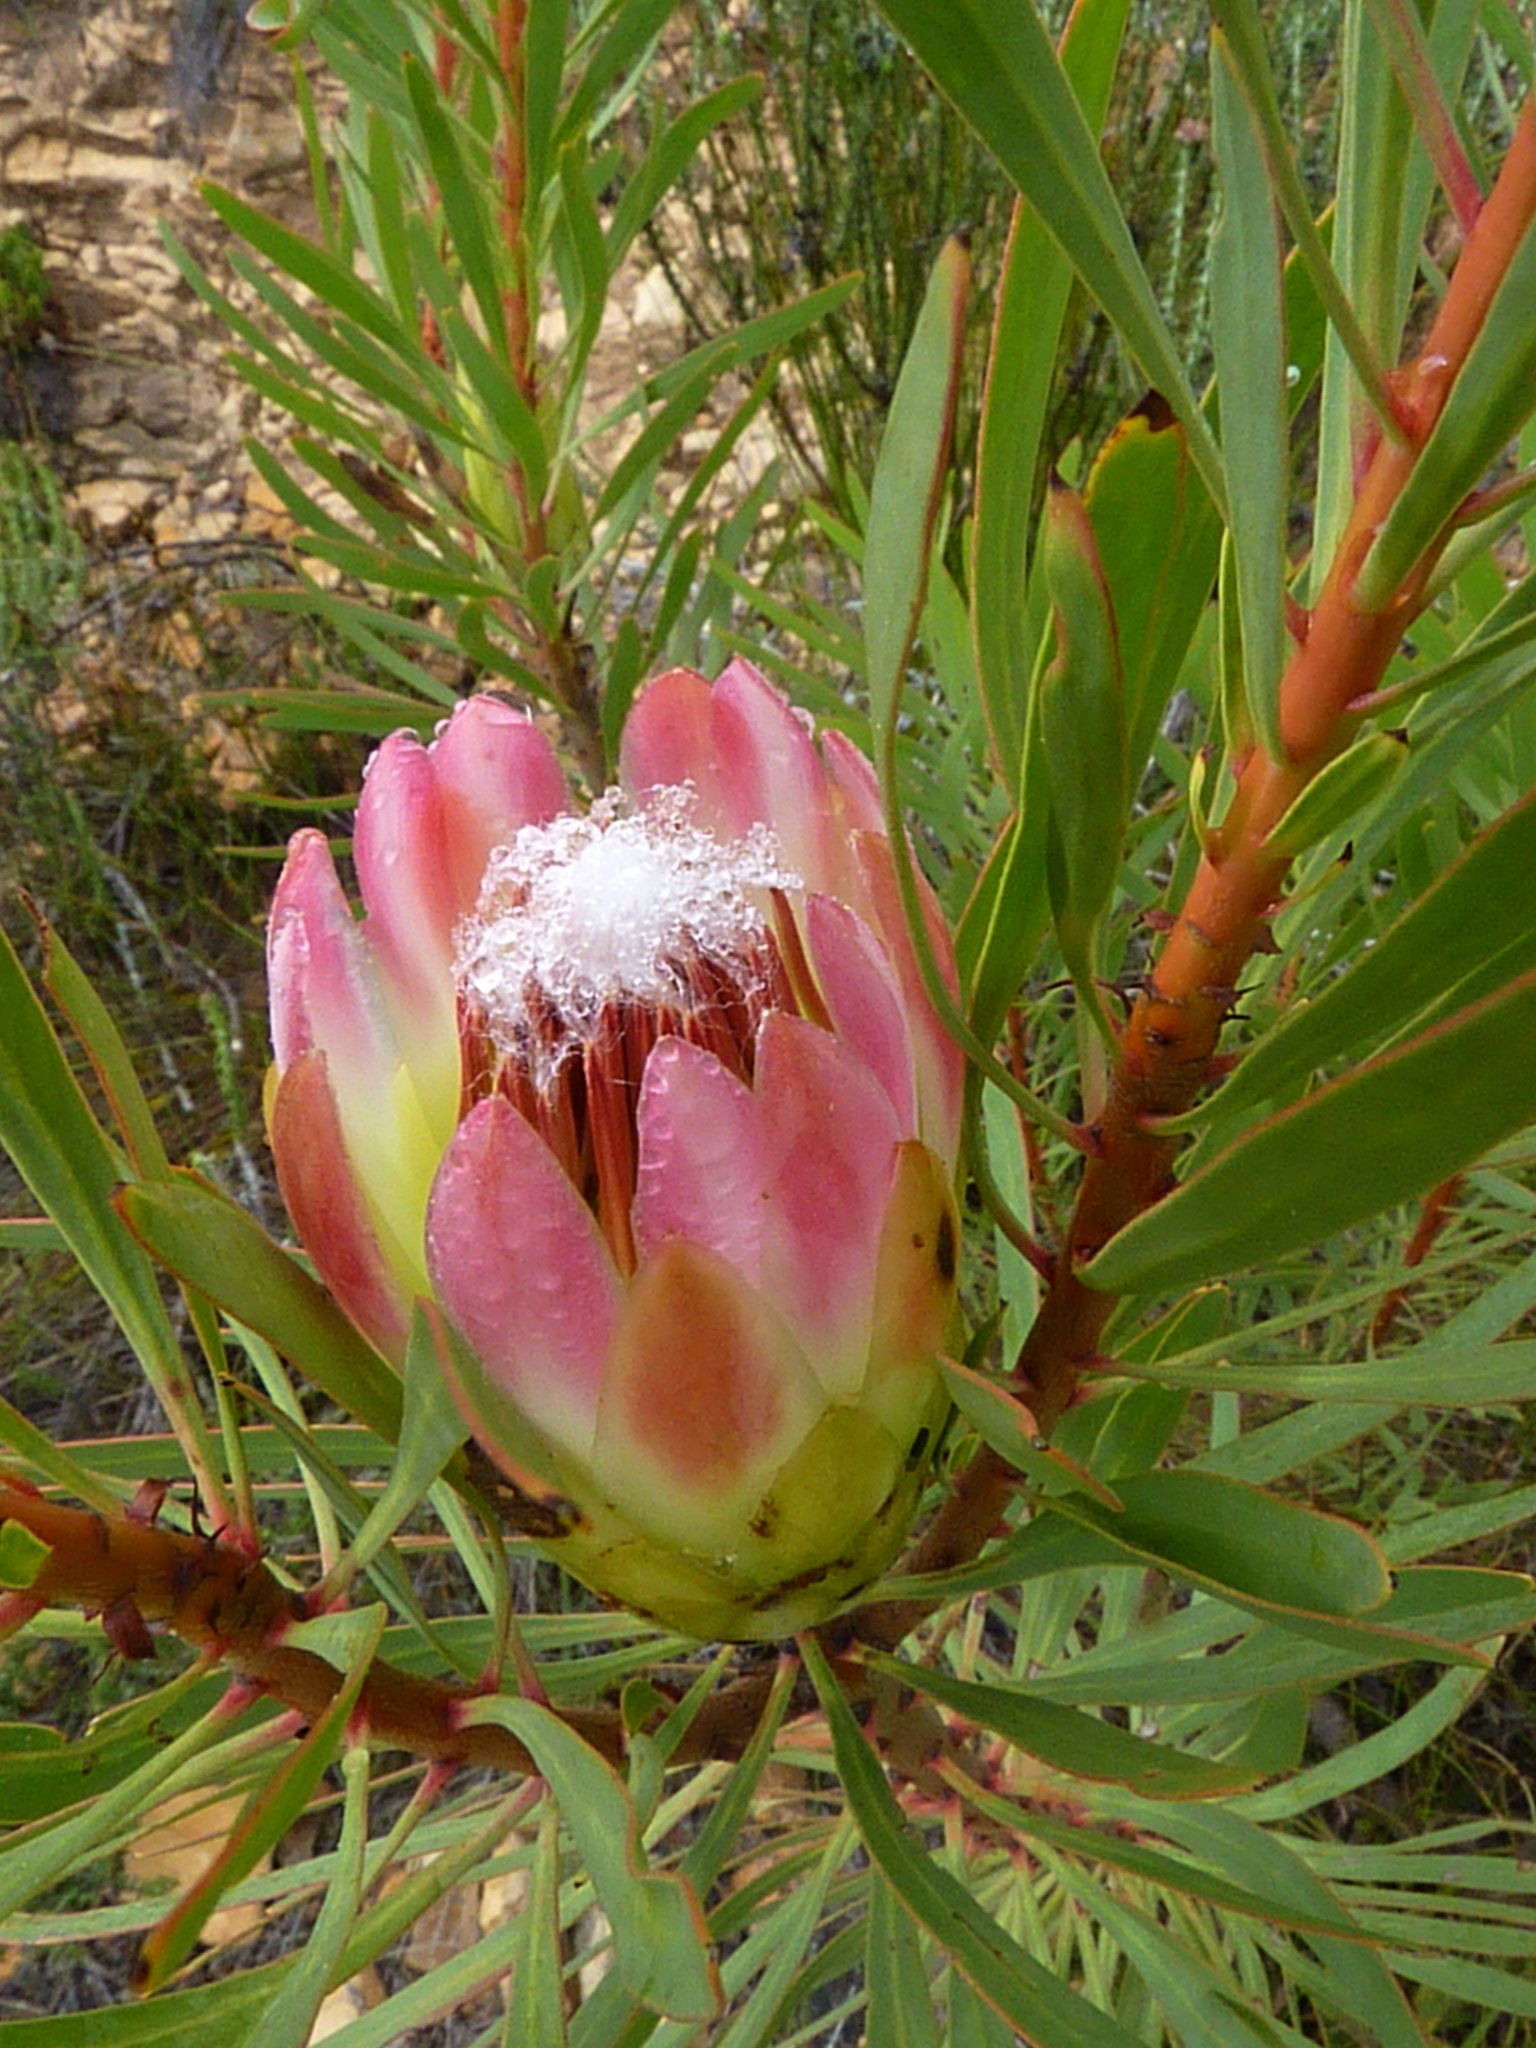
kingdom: Plantae
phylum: Tracheophyta
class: Magnoliopsida
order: Proteales
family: Proteaceae
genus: Protea
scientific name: Protea repens
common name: Sugarbush
